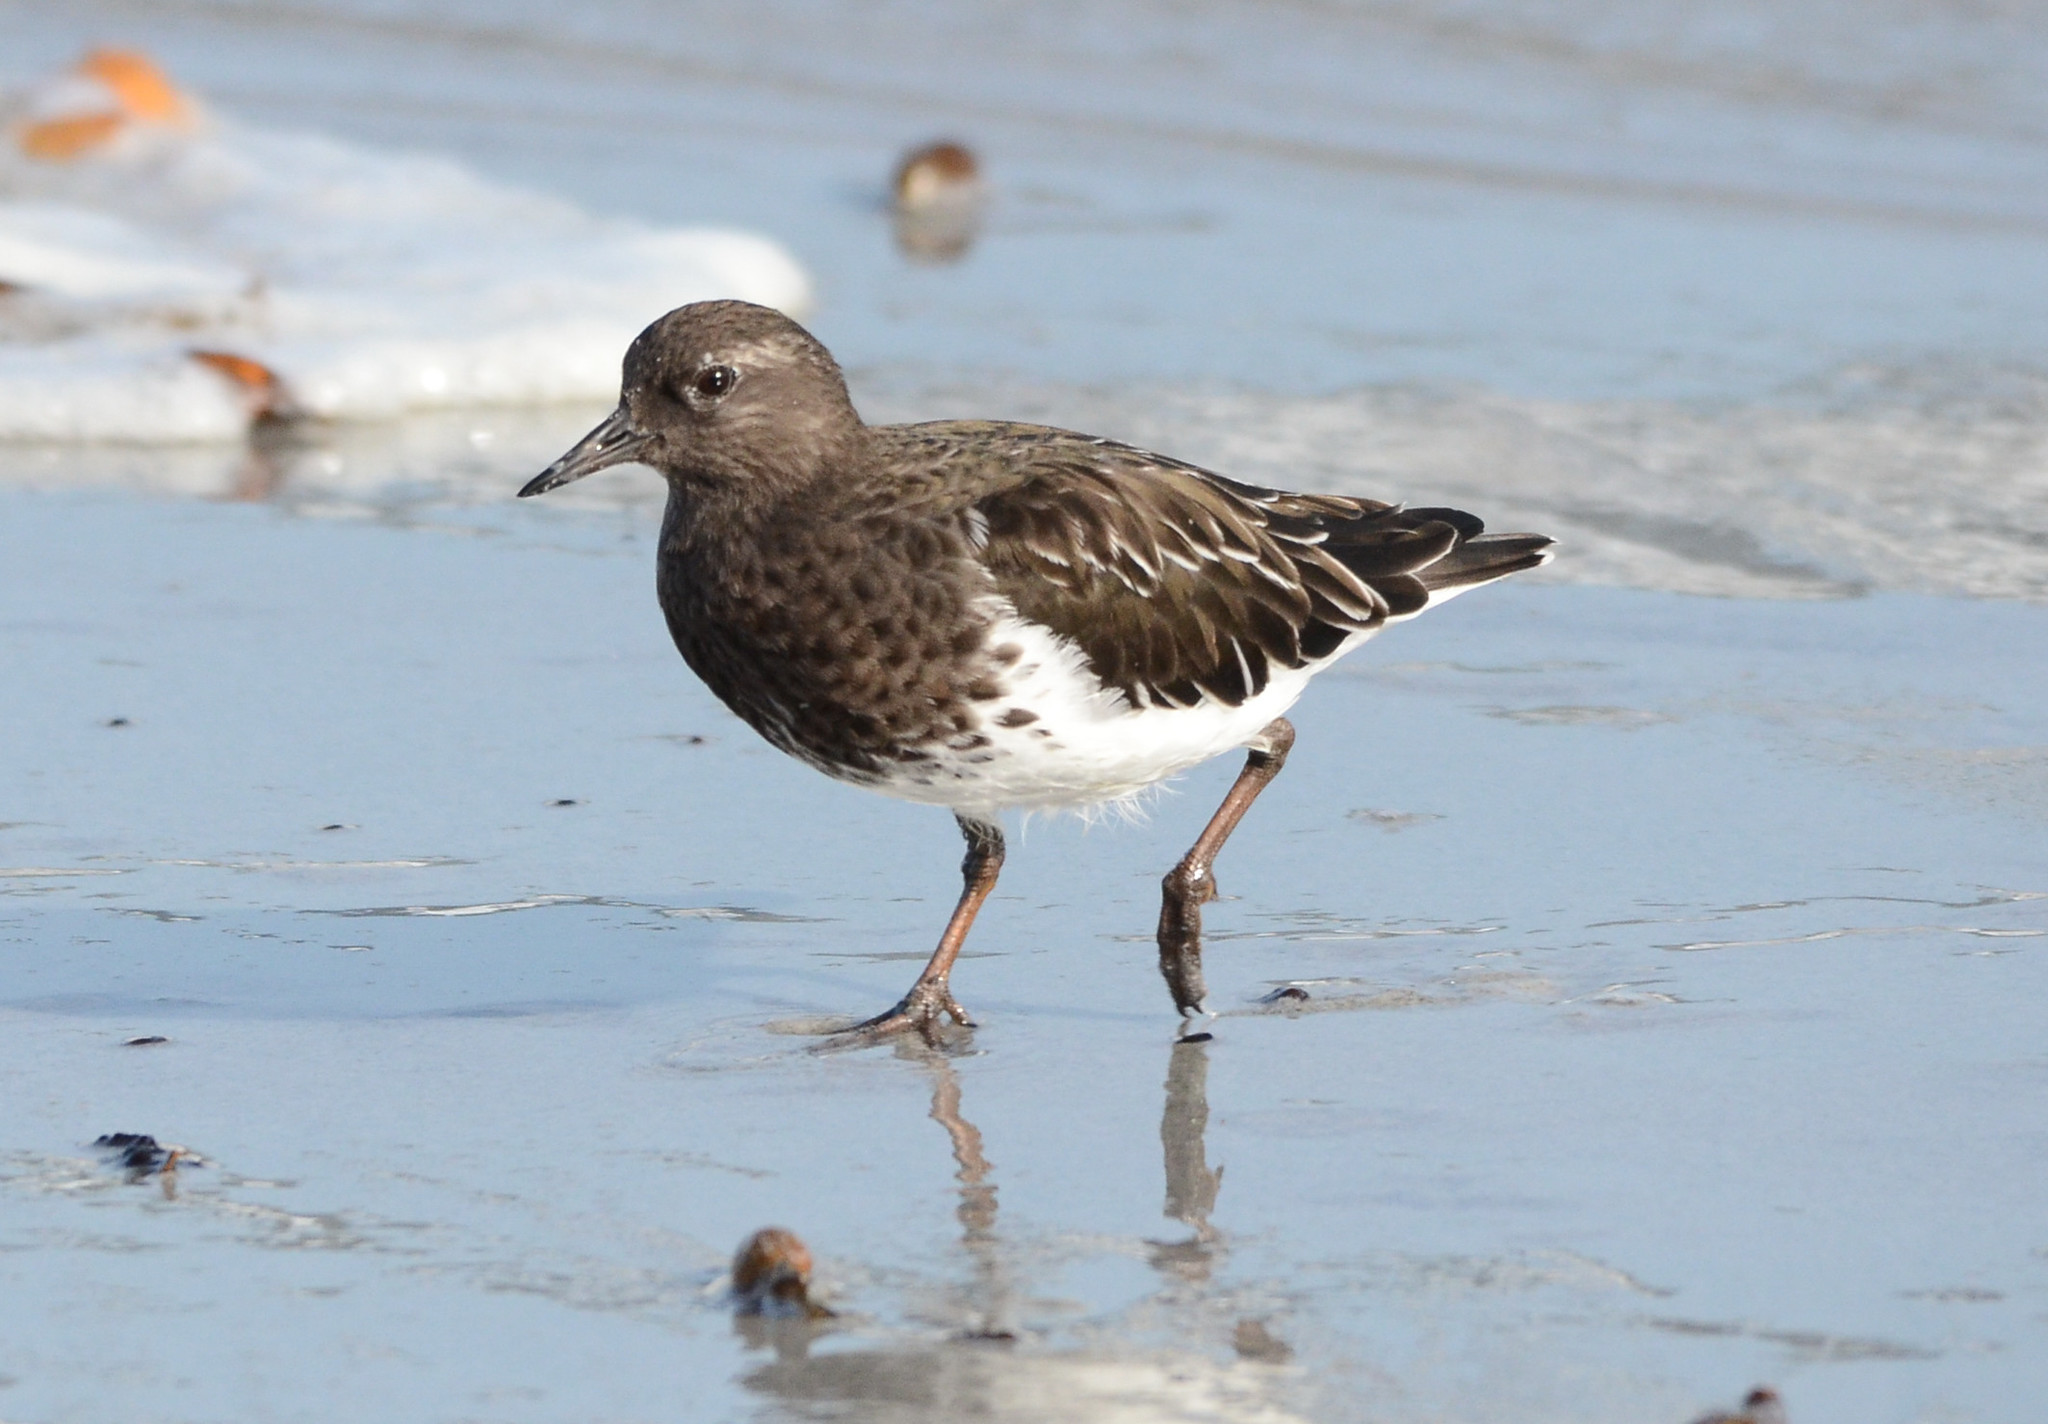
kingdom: Animalia
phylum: Chordata
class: Aves
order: Charadriiformes
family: Scolopacidae
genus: Arenaria
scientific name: Arenaria melanocephala
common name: Black turnstone
